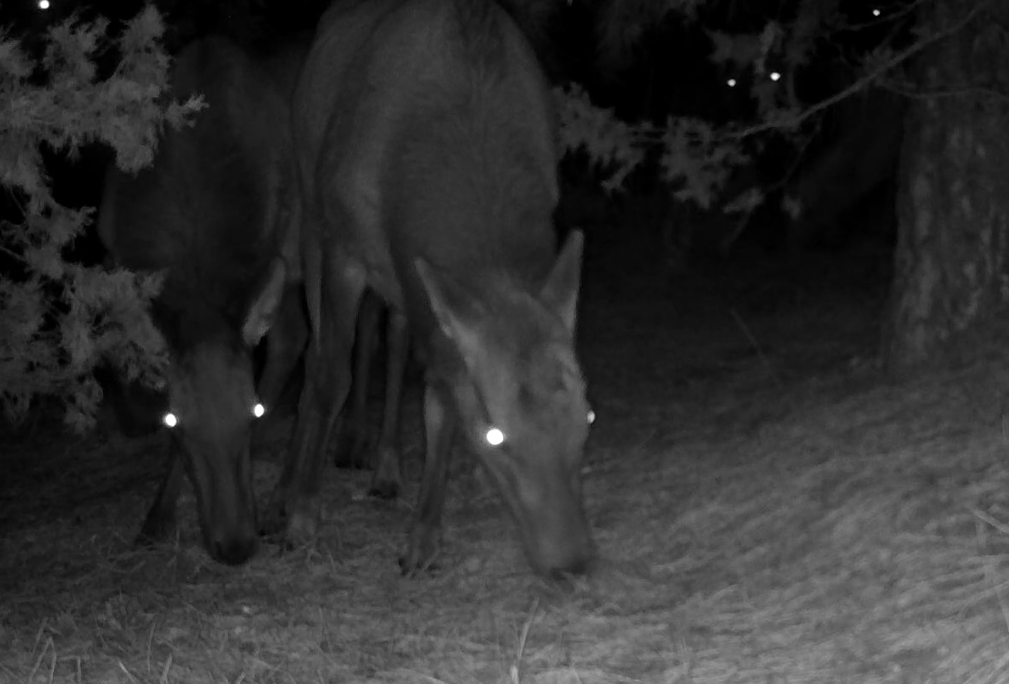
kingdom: Animalia
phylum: Chordata
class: Mammalia
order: Artiodactyla
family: Cervidae
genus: Cervus
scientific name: Cervus elaphus
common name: Red deer
